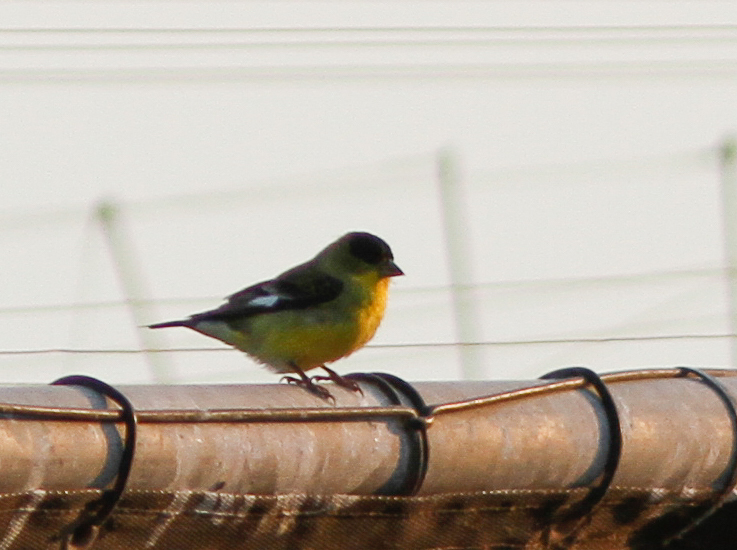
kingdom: Animalia
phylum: Chordata
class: Aves
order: Passeriformes
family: Fringillidae
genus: Spinus
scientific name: Spinus psaltria
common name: Lesser goldfinch
